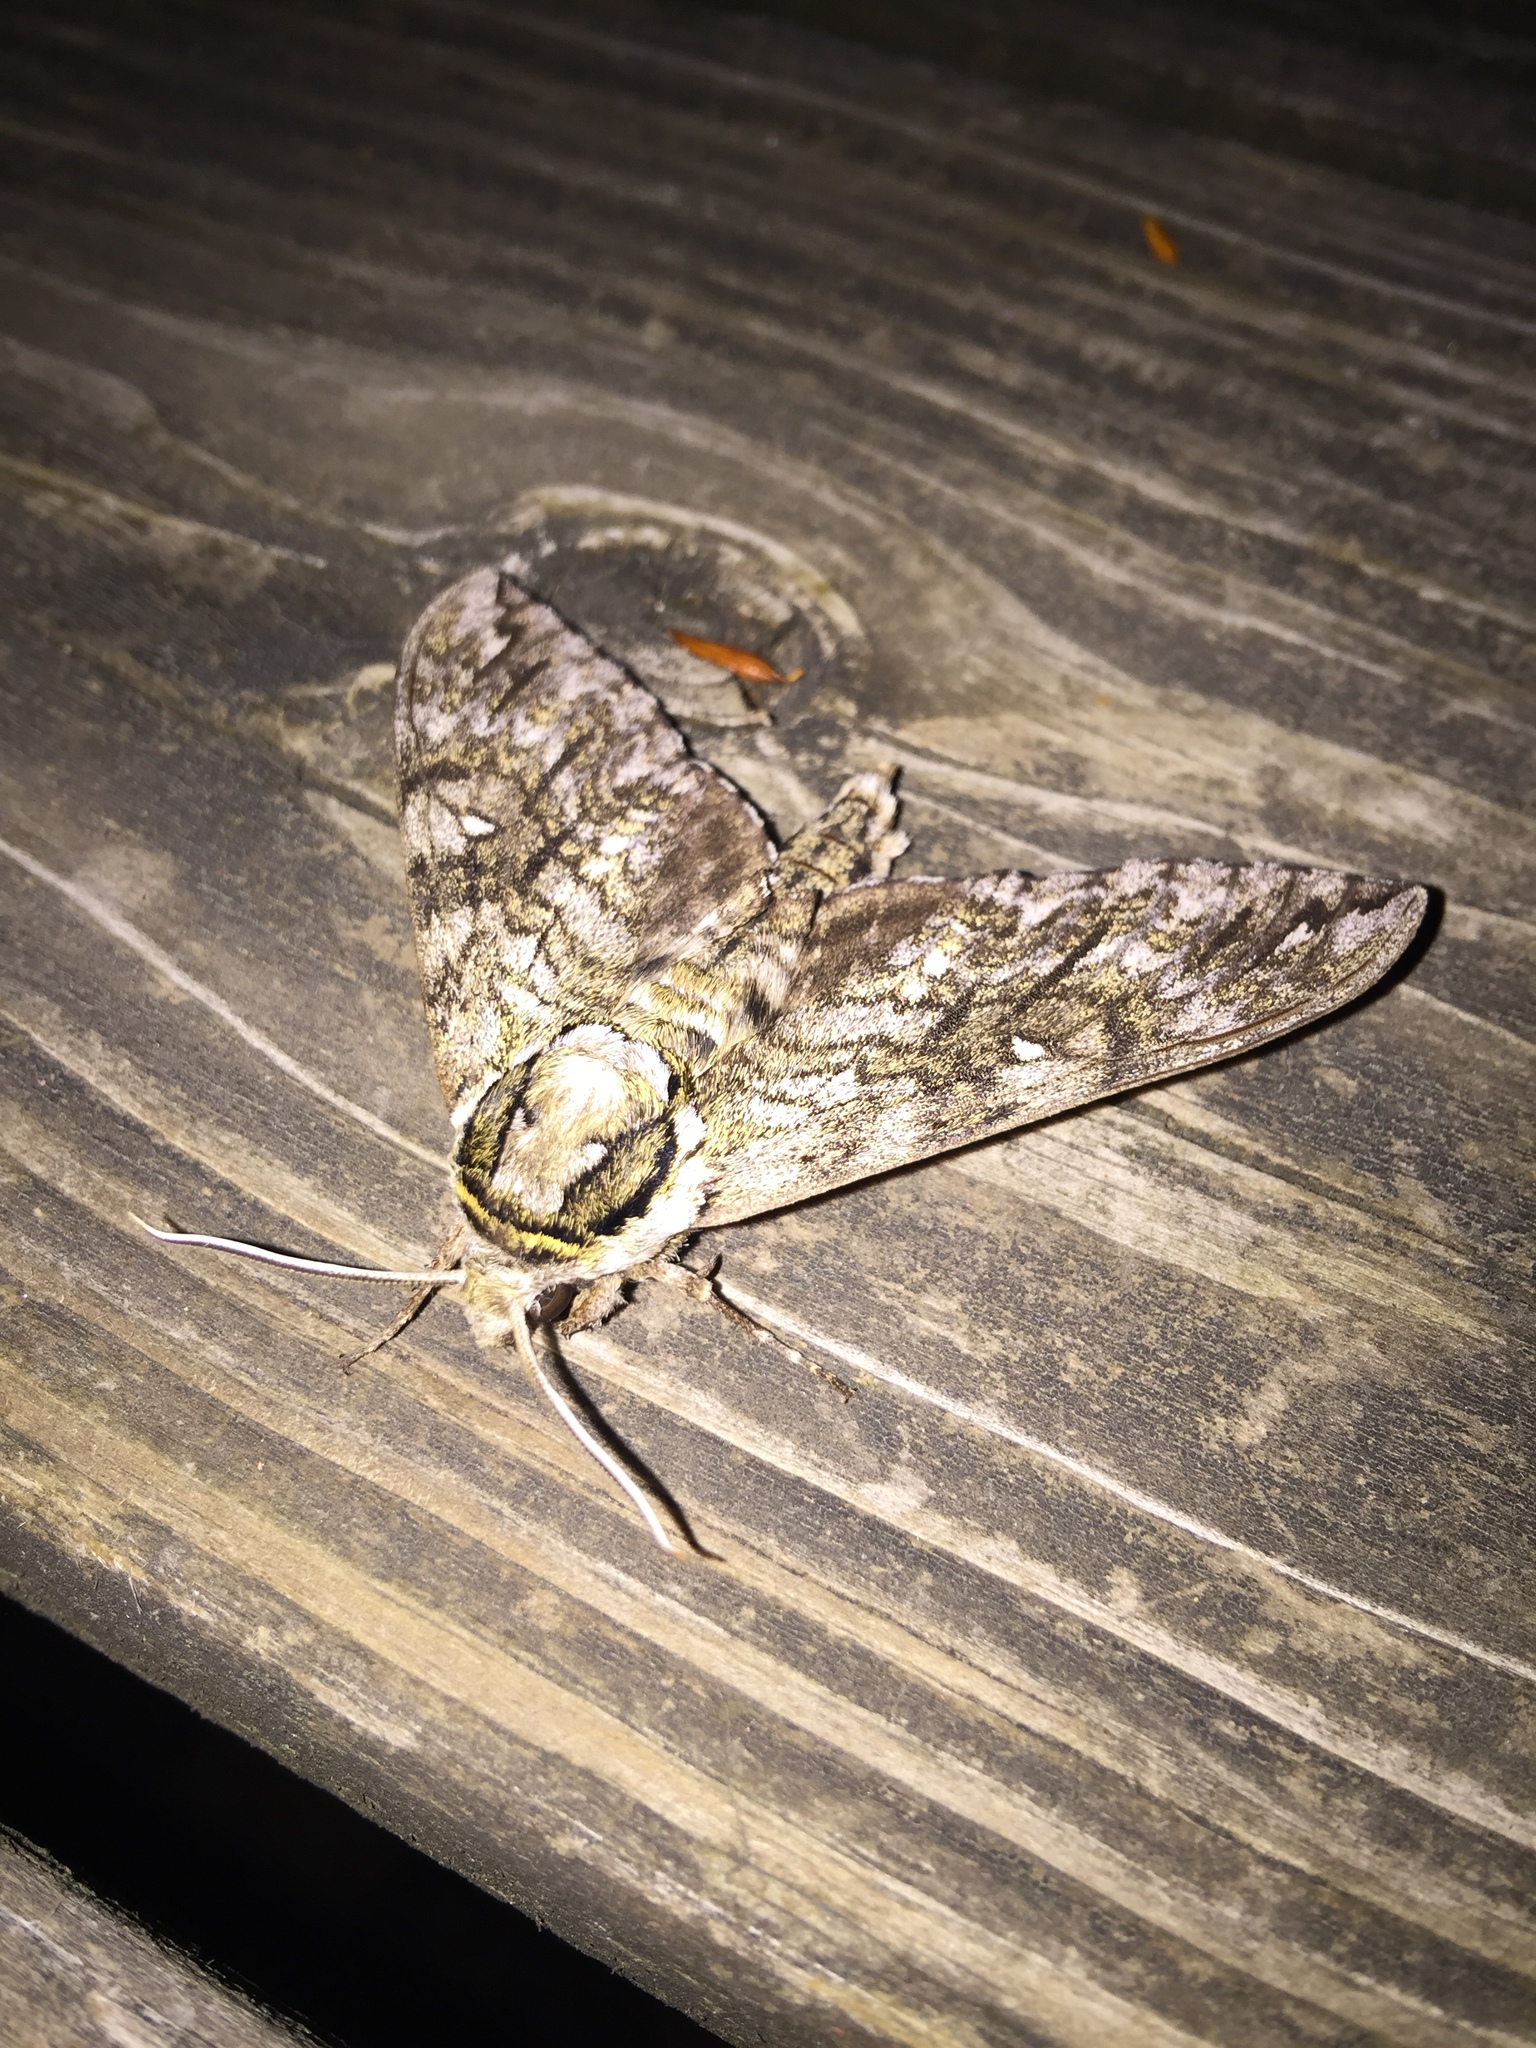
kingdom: Animalia
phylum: Arthropoda
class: Insecta
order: Lepidoptera
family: Sphingidae
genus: Ceratomia
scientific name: Ceratomia undulosa
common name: Waved sphinx
